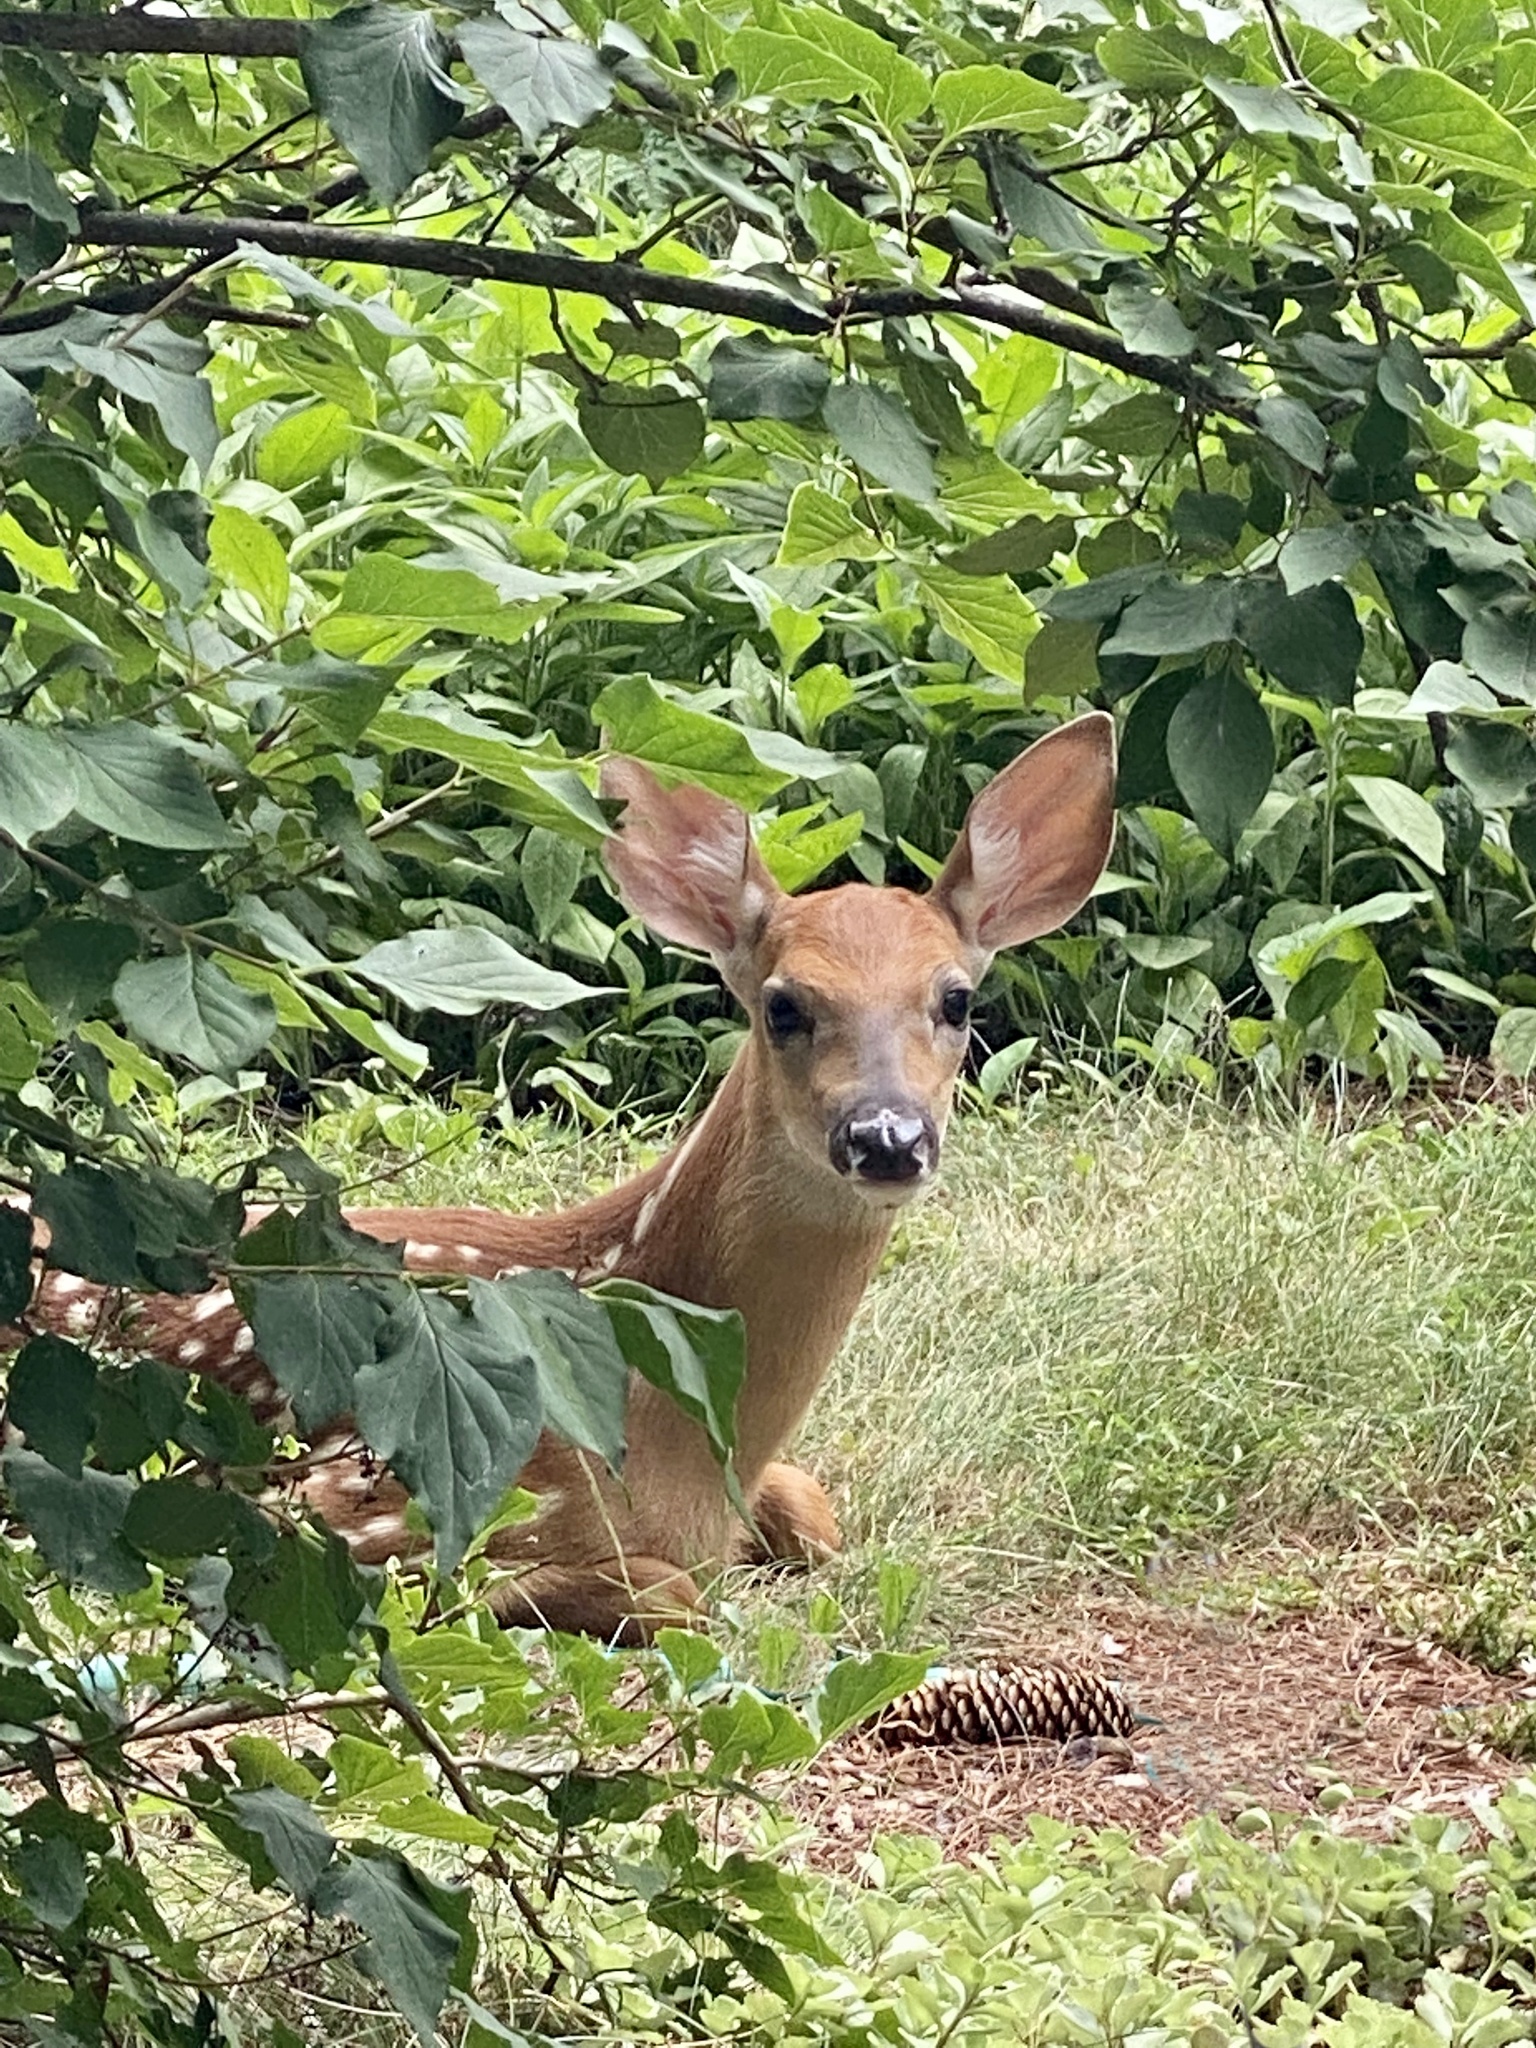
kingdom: Animalia
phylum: Chordata
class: Mammalia
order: Artiodactyla
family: Cervidae
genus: Odocoileus
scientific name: Odocoileus virginianus
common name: White-tailed deer
